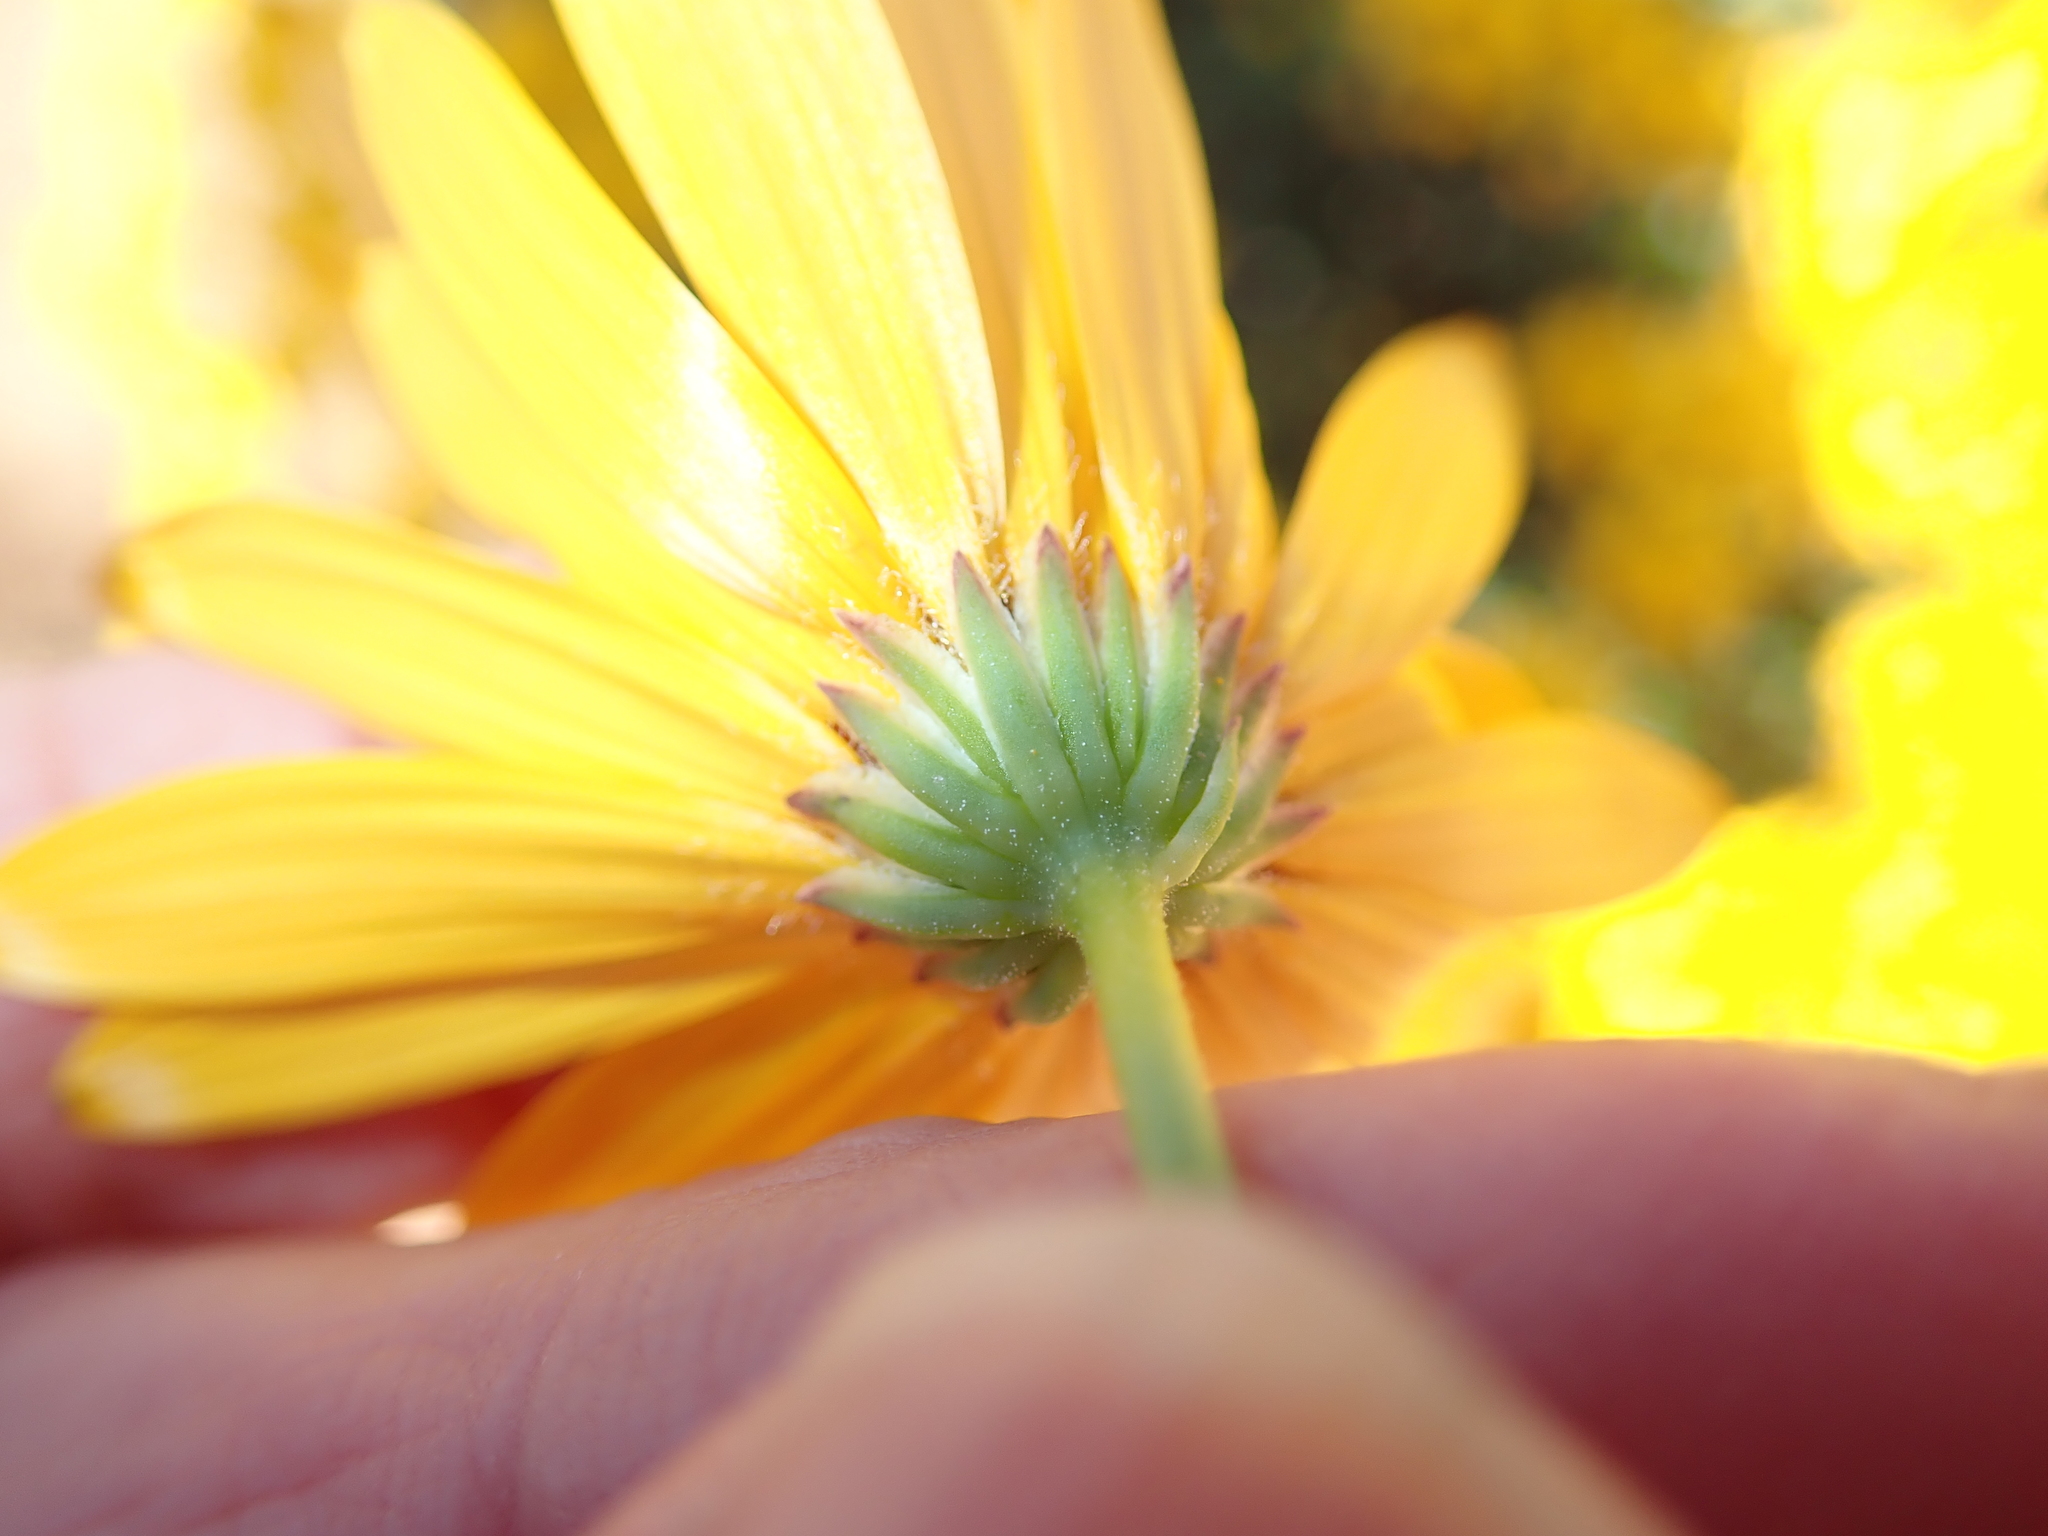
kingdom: Plantae
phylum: Tracheophyta
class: Magnoliopsida
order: Asterales
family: Asteraceae
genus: Osteospermum
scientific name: Osteospermum oppositifolium
